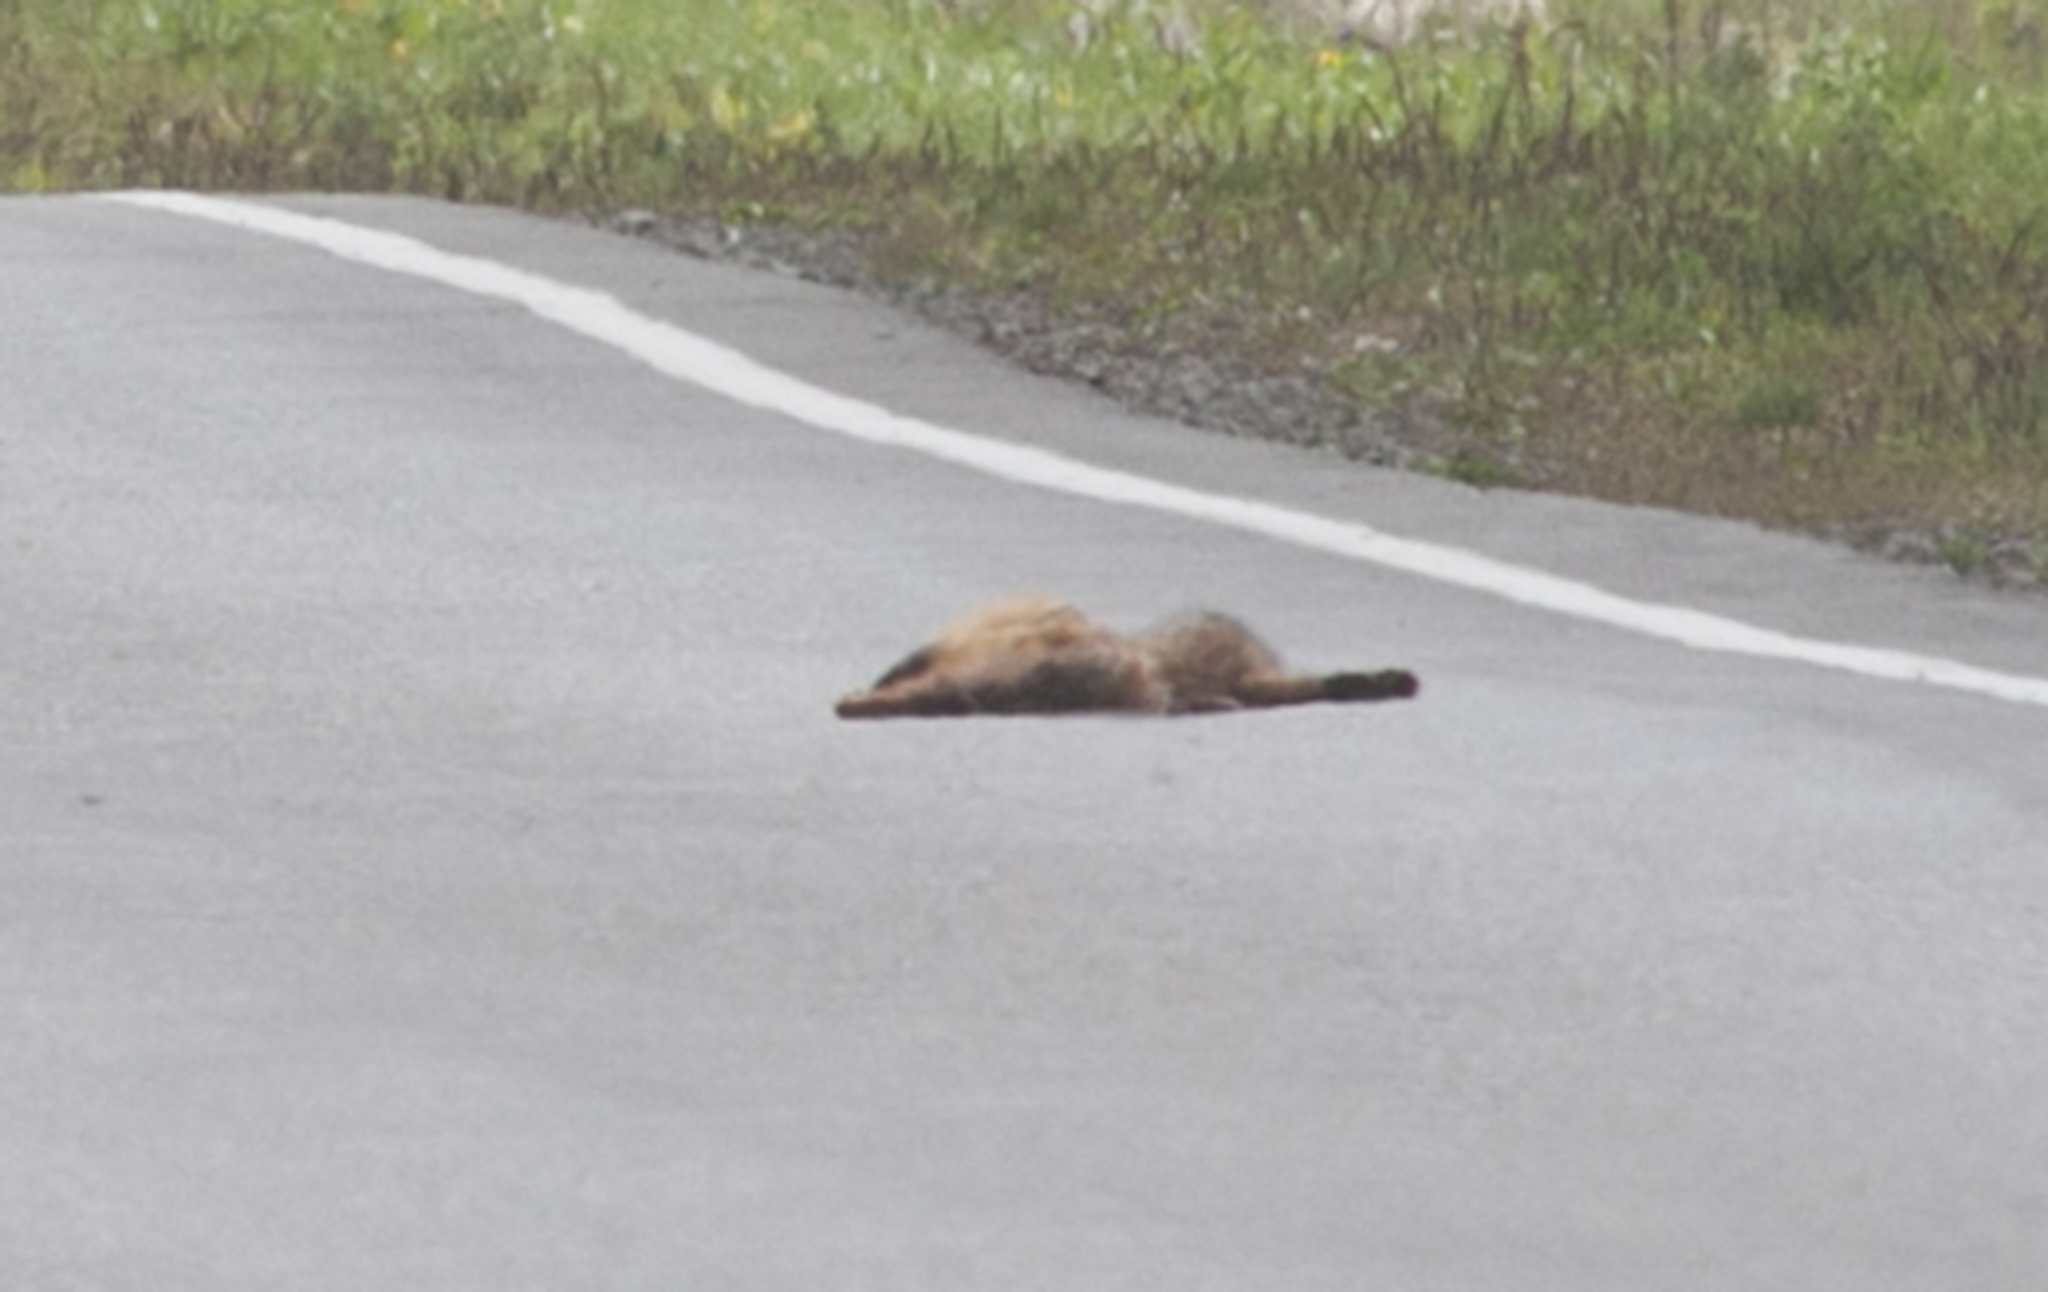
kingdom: Animalia
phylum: Chordata
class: Mammalia
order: Carnivora
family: Canidae
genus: Vulpes
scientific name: Vulpes vulpes
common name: Red fox
